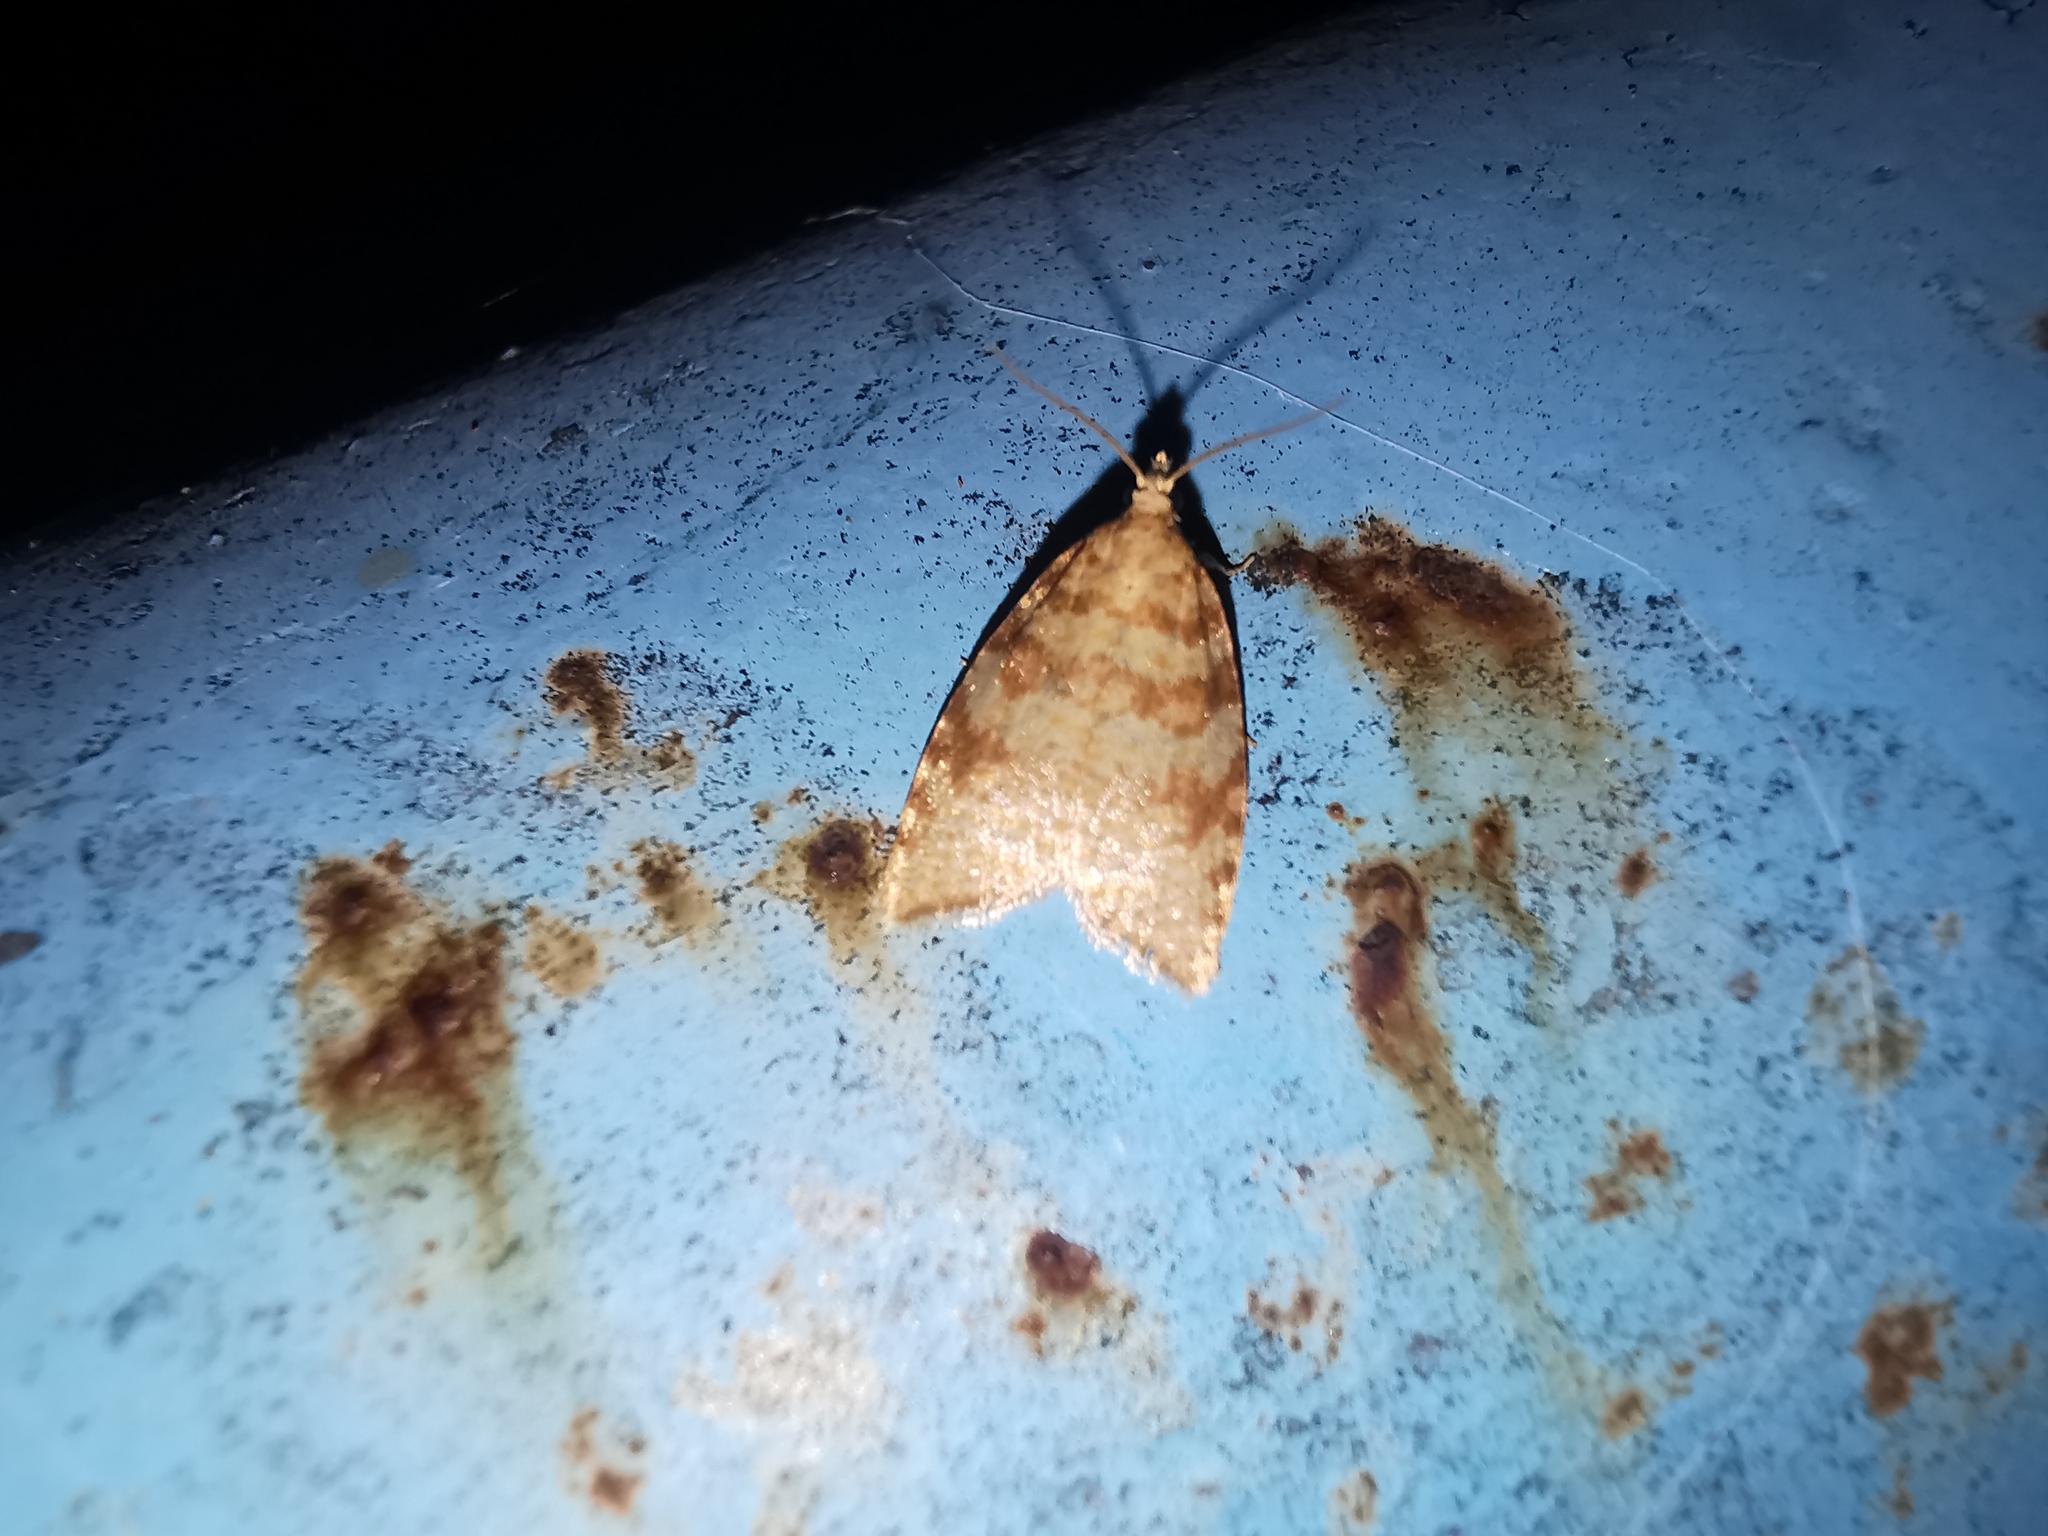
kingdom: Animalia
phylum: Arthropoda
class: Insecta
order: Lepidoptera
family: Tortricidae
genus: Aleimma
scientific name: Aleimma loeflingiana
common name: Yellow oak button
